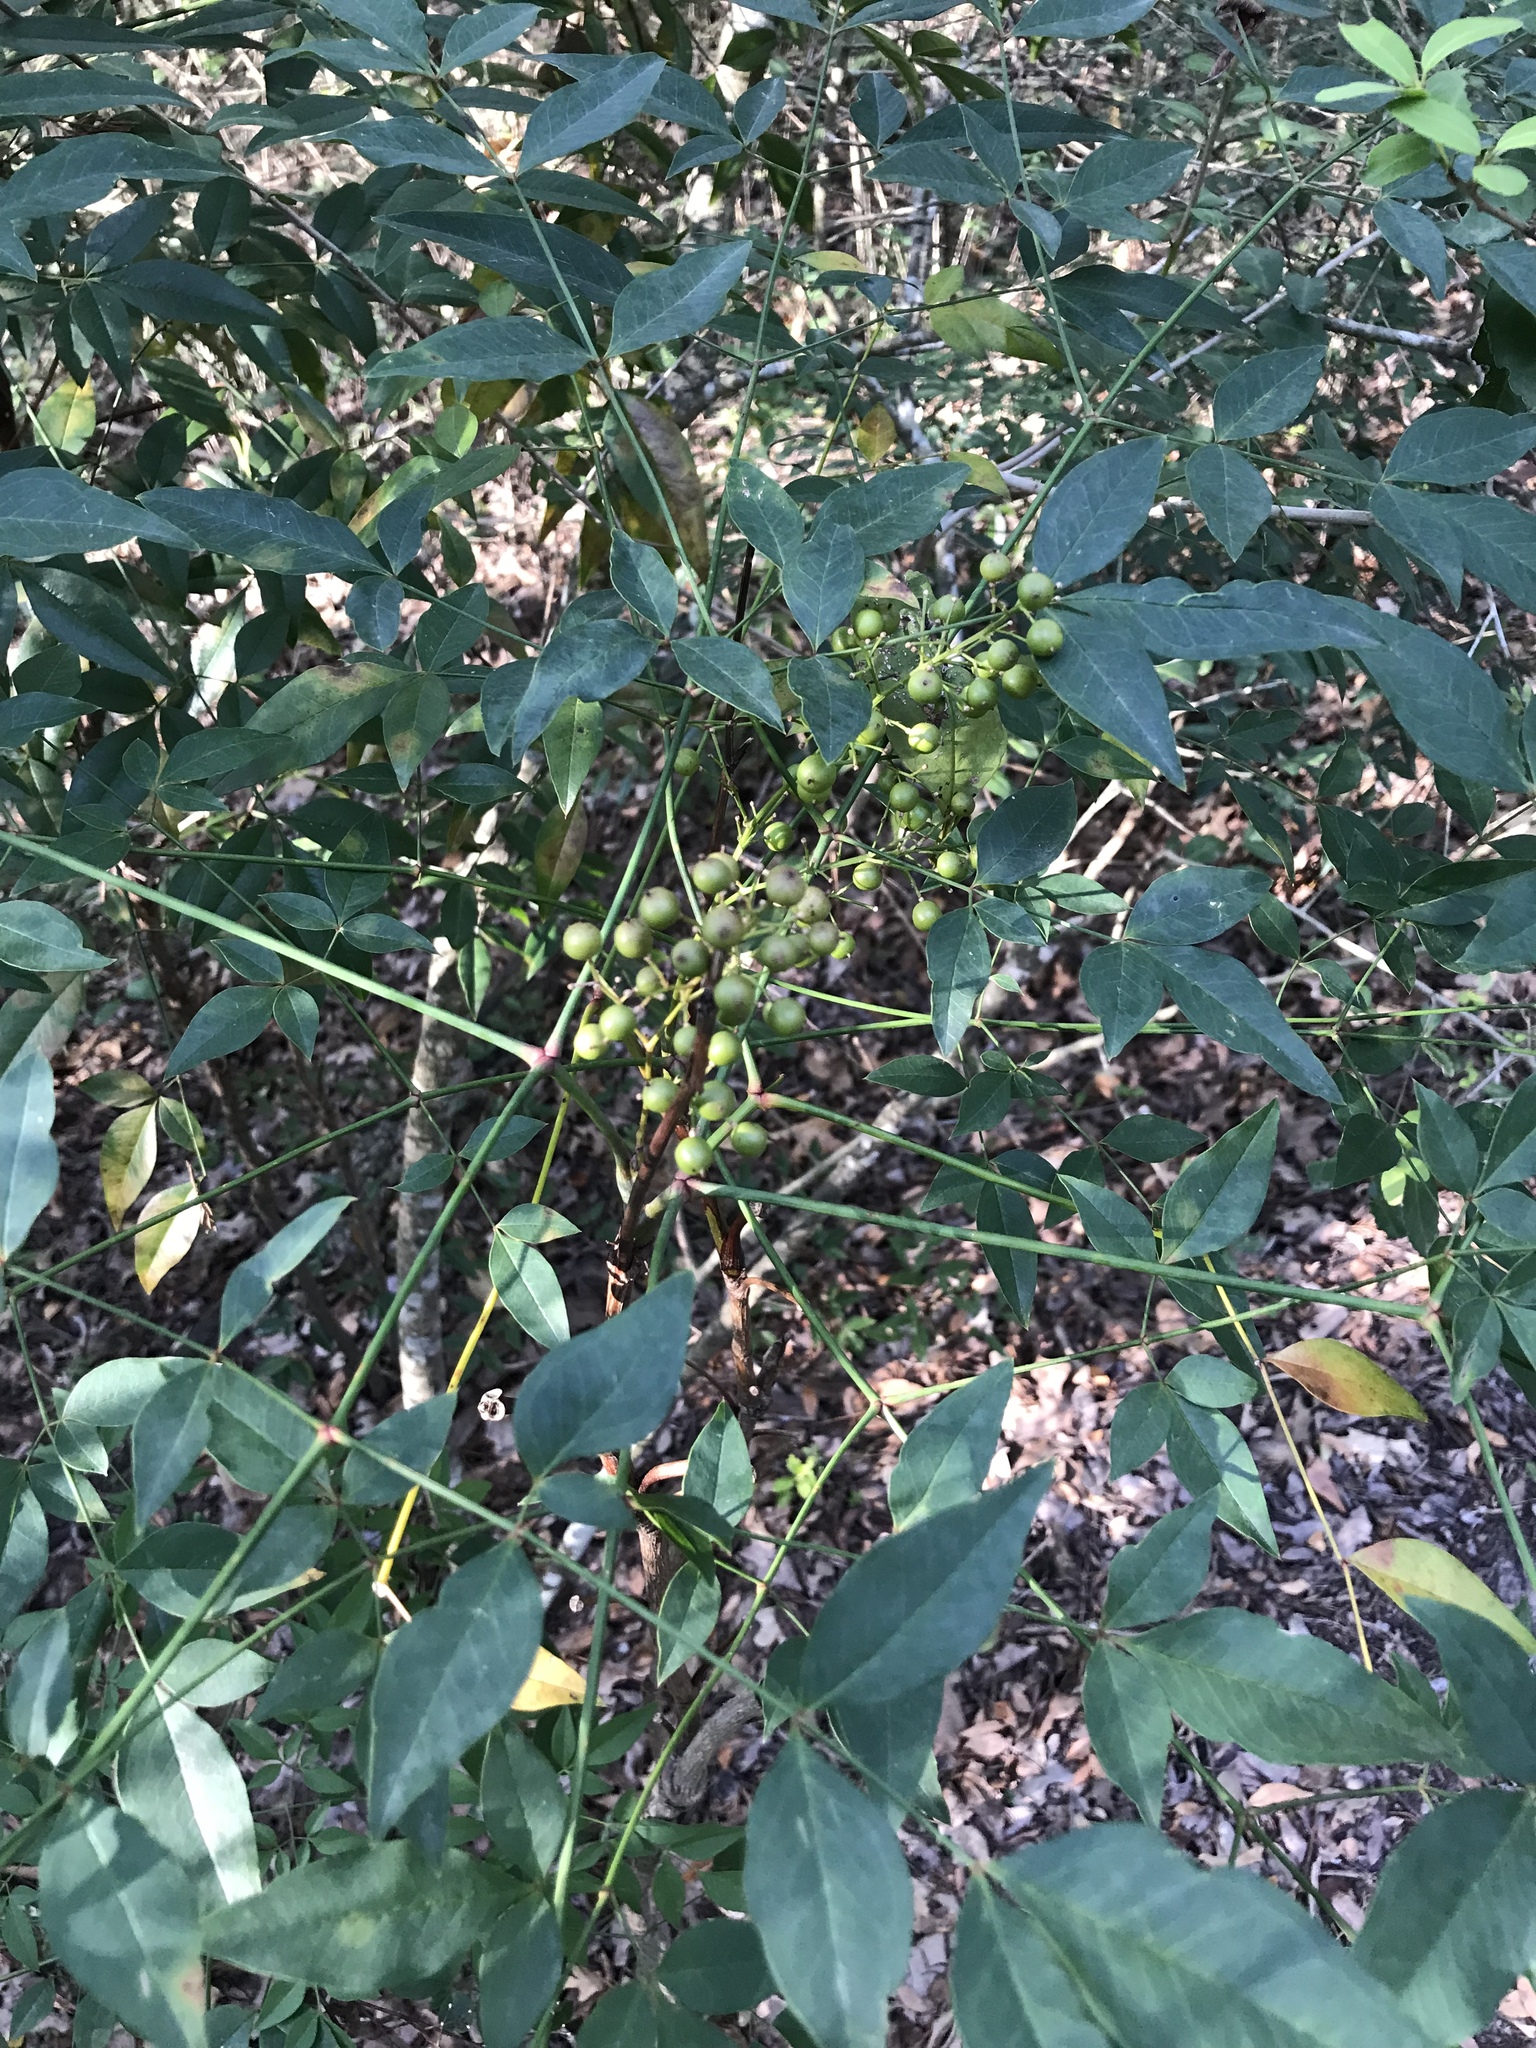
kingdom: Plantae
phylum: Tracheophyta
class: Magnoliopsida
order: Ranunculales
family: Berberidaceae
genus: Nandina
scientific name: Nandina domestica
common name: Sacred bamboo
